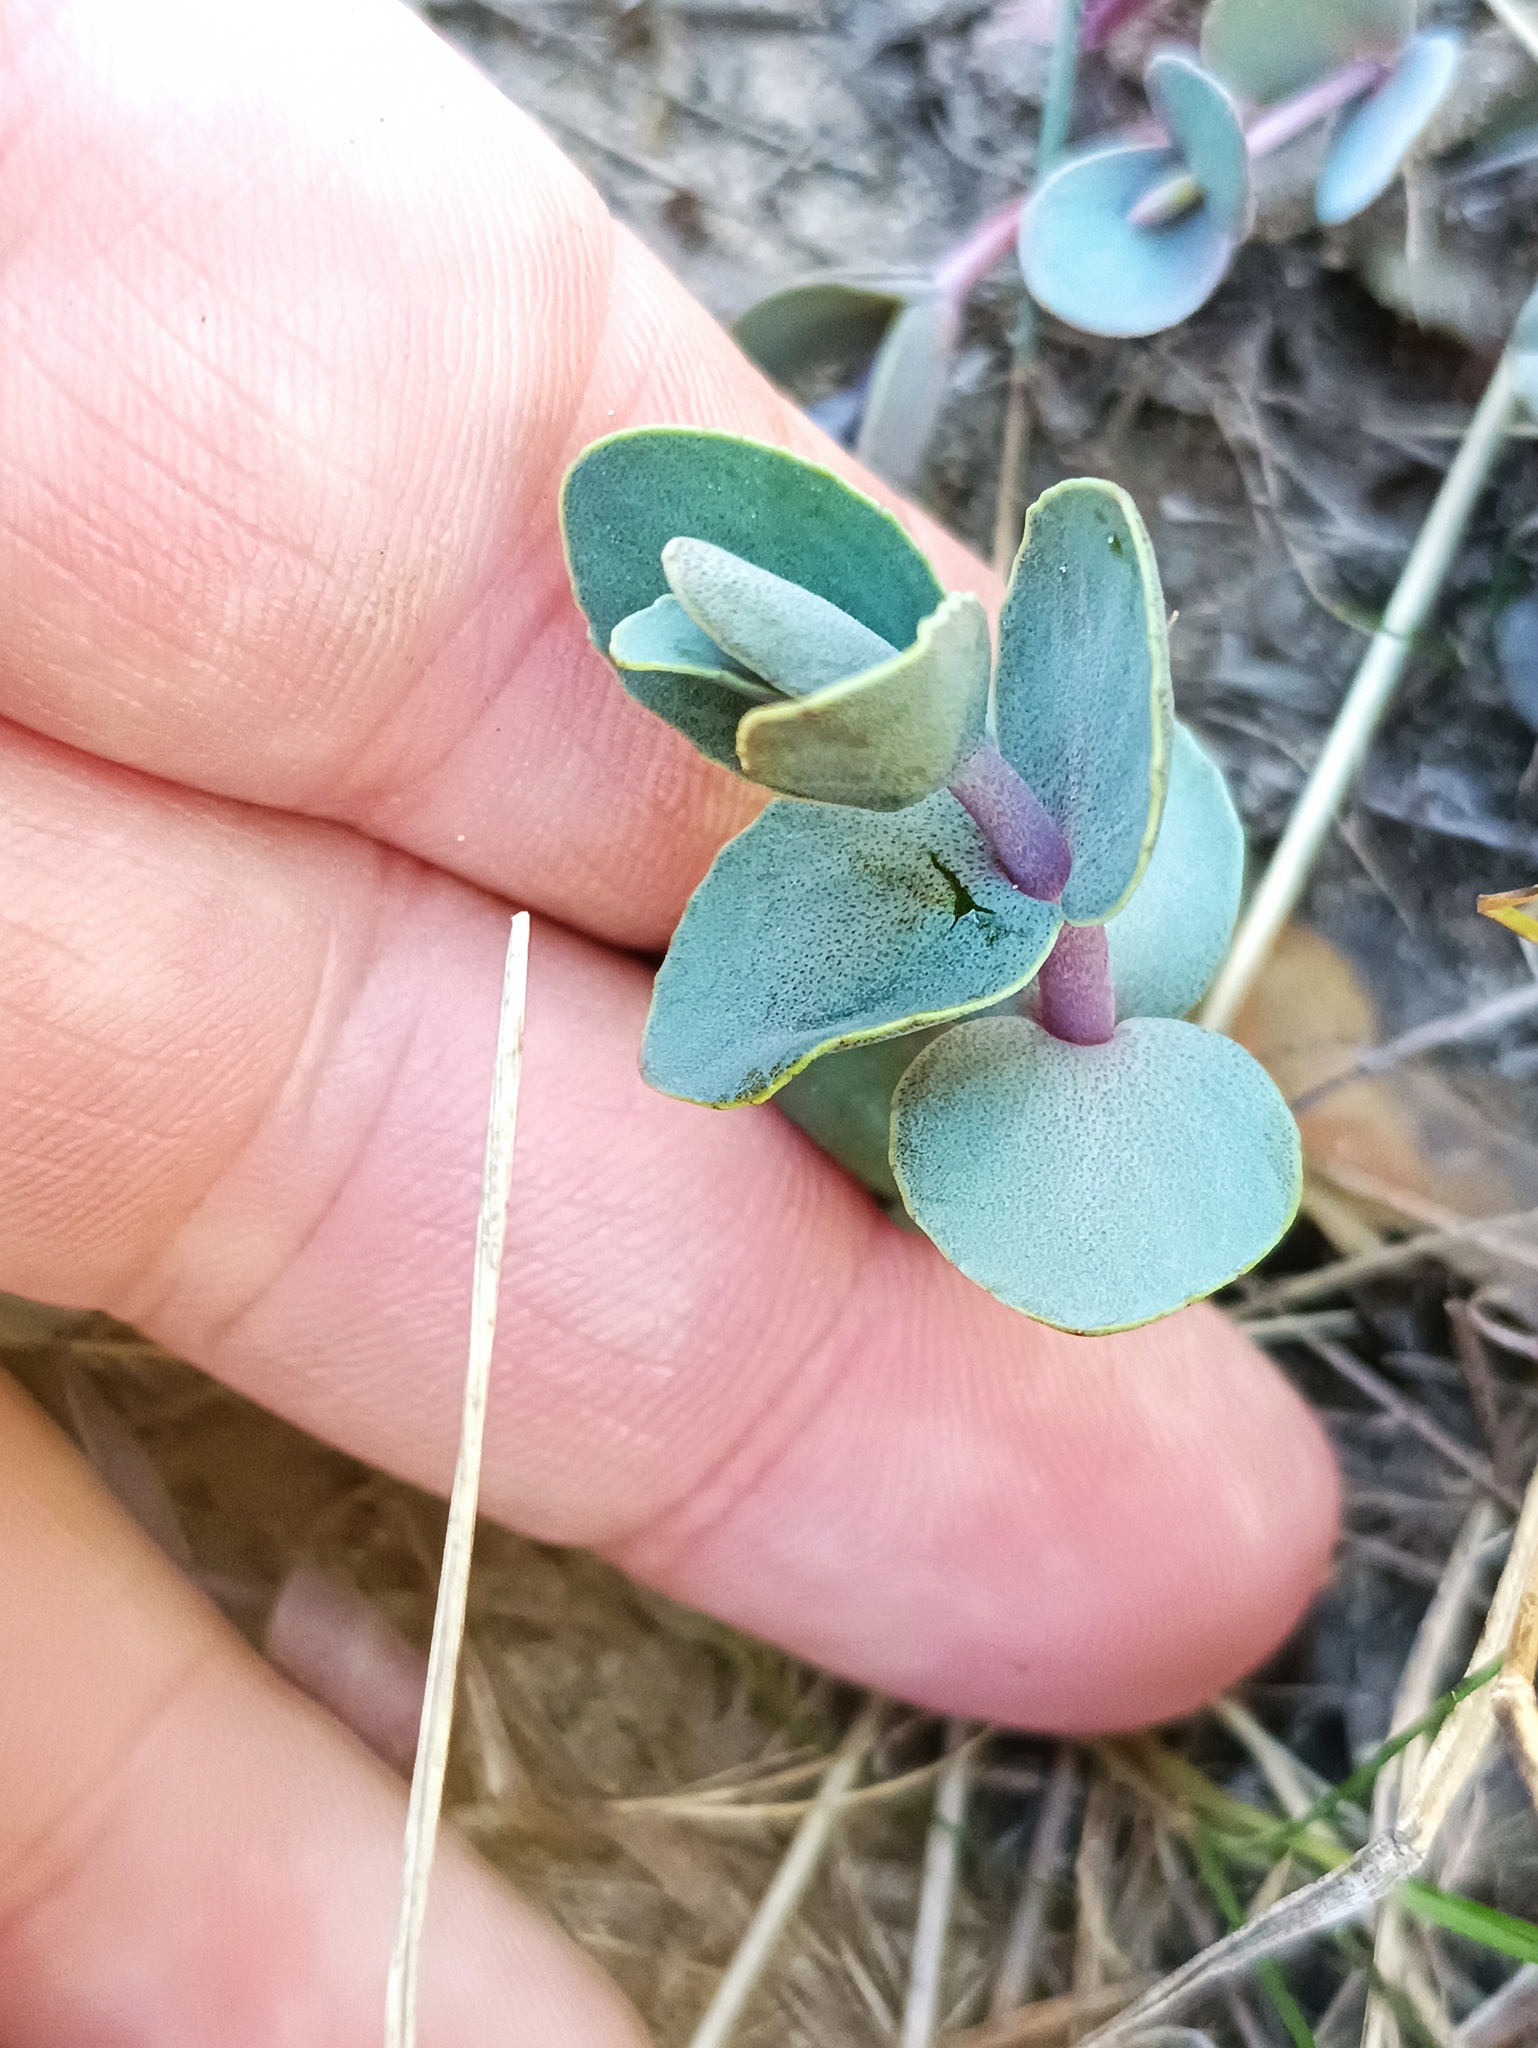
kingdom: Plantae
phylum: Tracheophyta
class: Magnoliopsida
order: Saxifragales
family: Crassulaceae
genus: Hylotelephium
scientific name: Hylotelephium maximum
